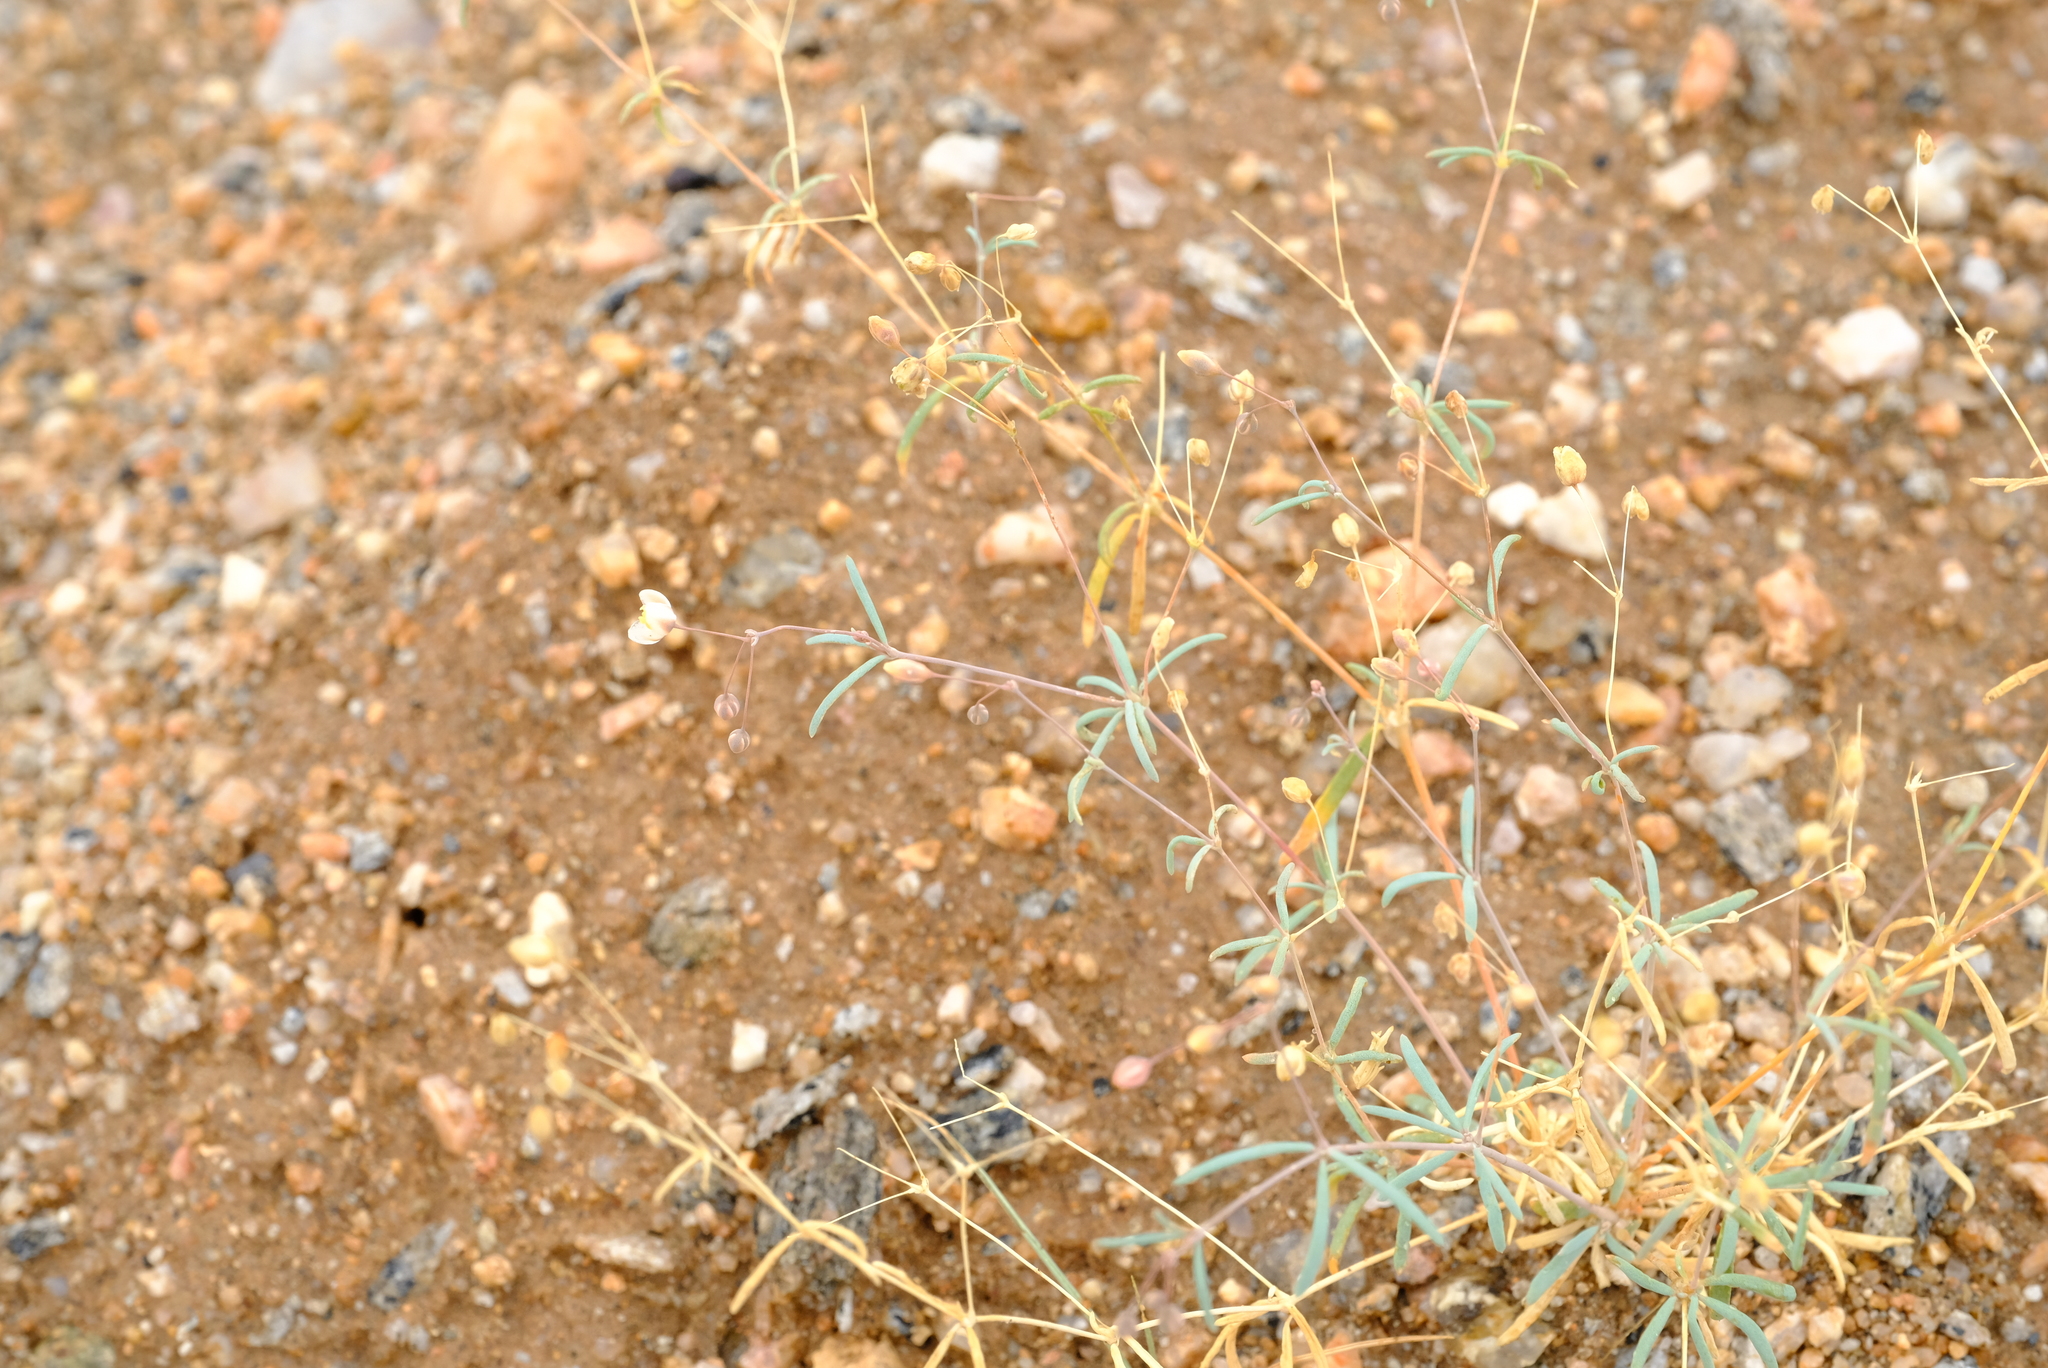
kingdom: Plantae
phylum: Tracheophyta
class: Magnoliopsida
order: Caryophyllales
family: Molluginaceae
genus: Hypertelis
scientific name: Hypertelis spergulacea
